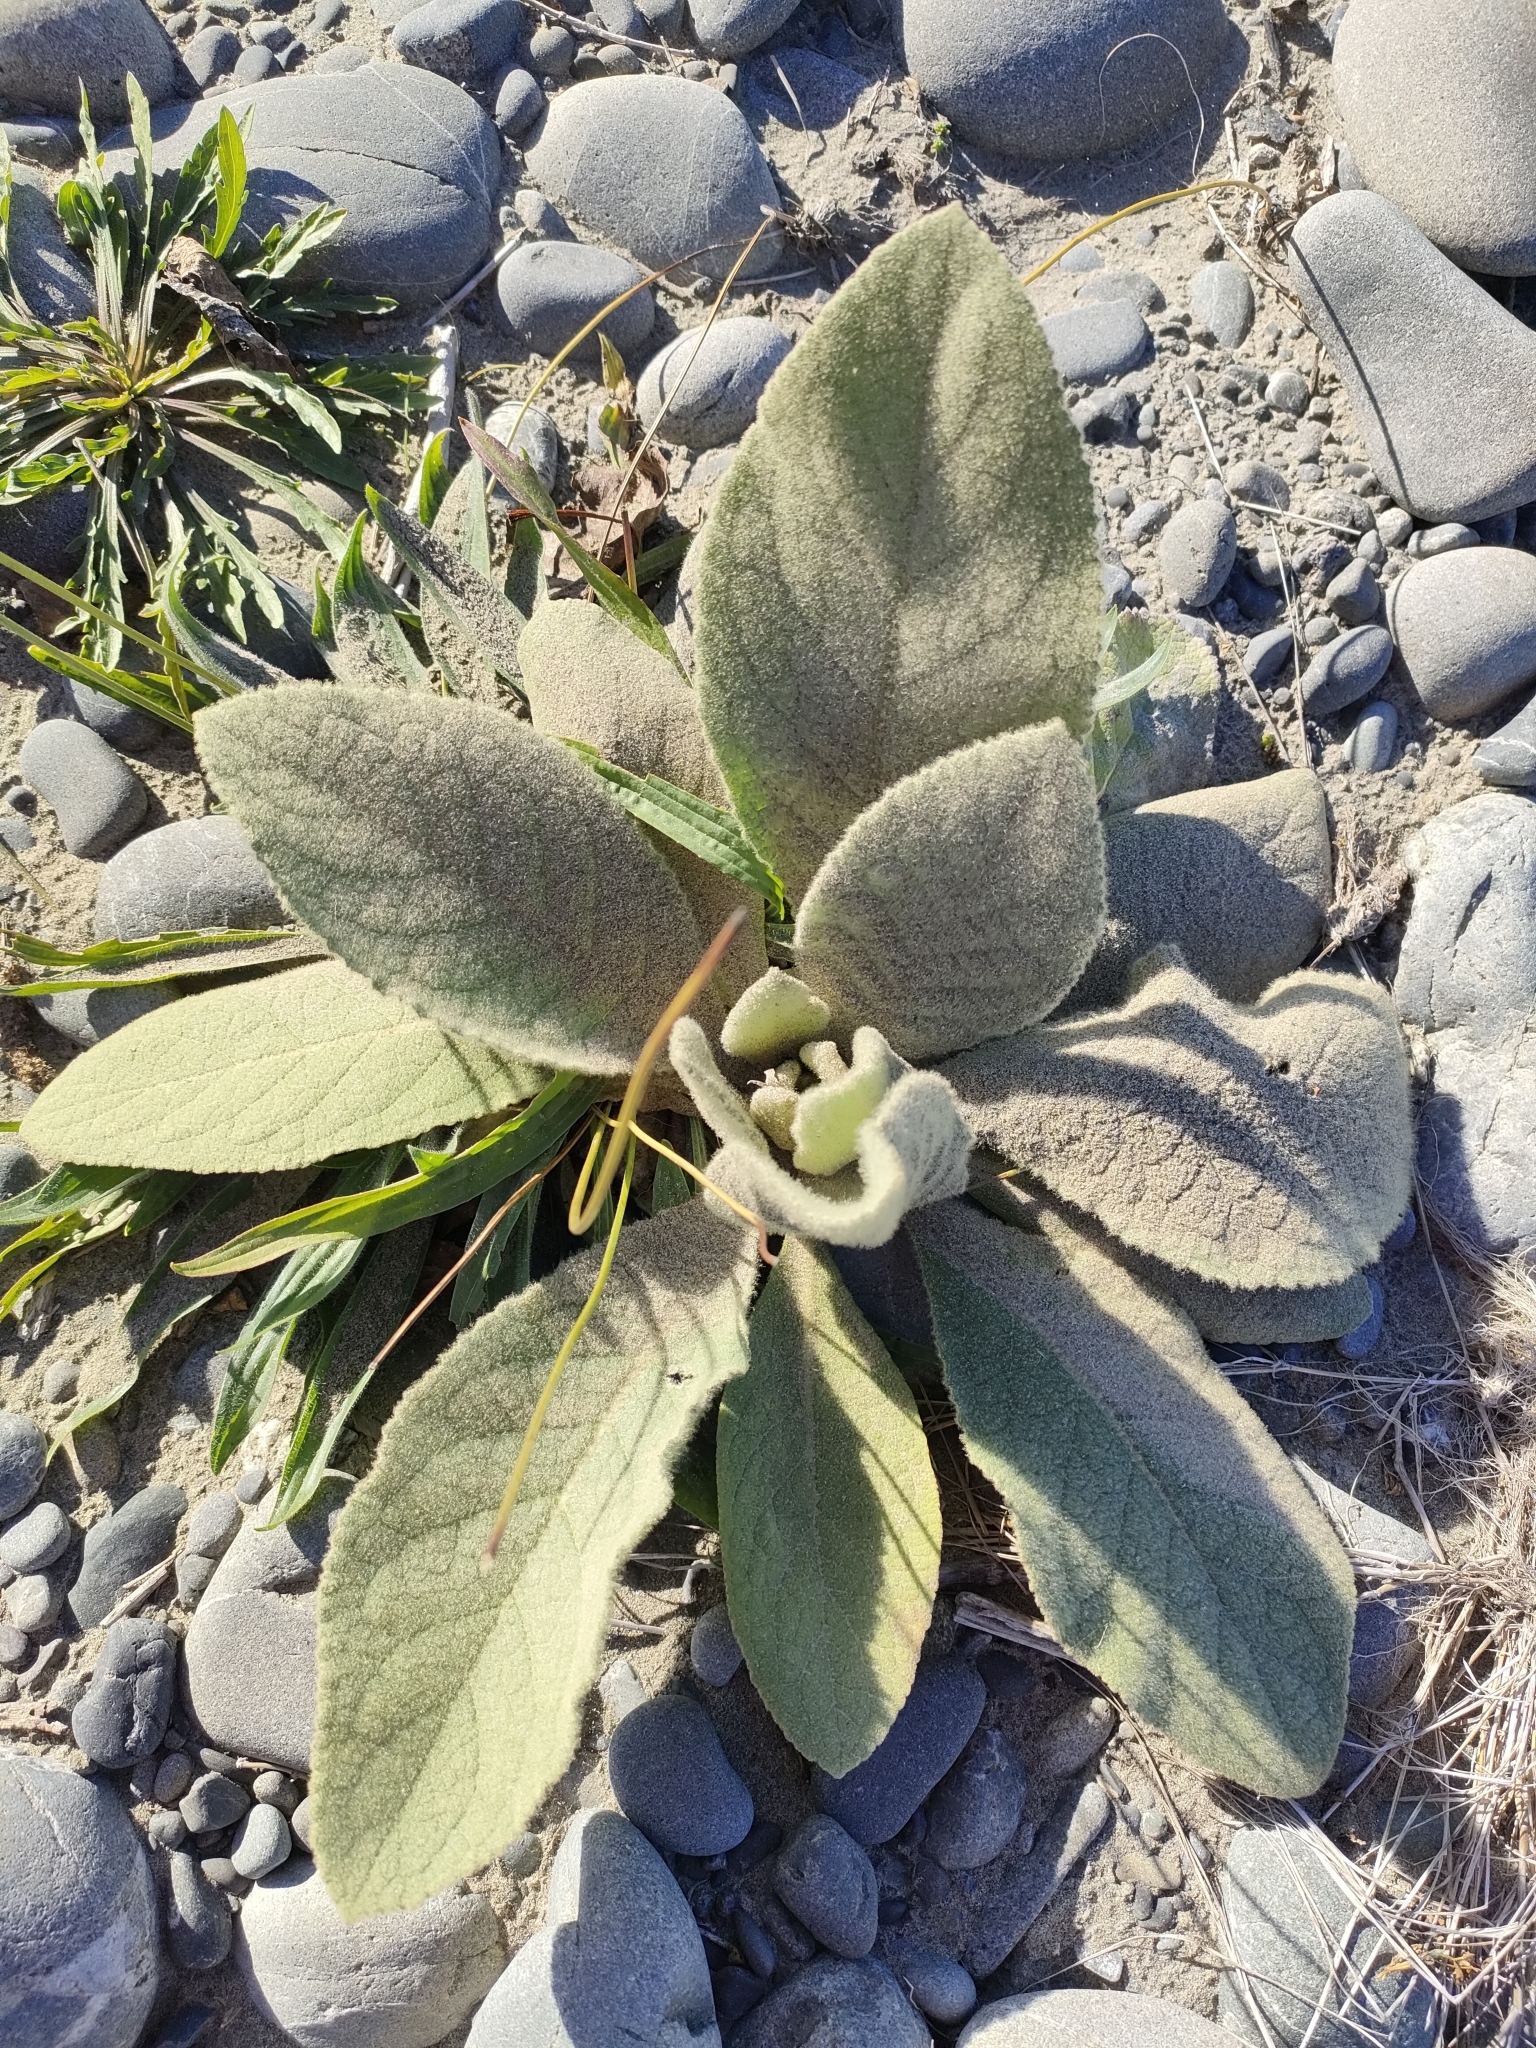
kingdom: Plantae
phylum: Tracheophyta
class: Magnoliopsida
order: Lamiales
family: Scrophulariaceae
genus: Verbascum
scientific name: Verbascum thapsus
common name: Common mullein
